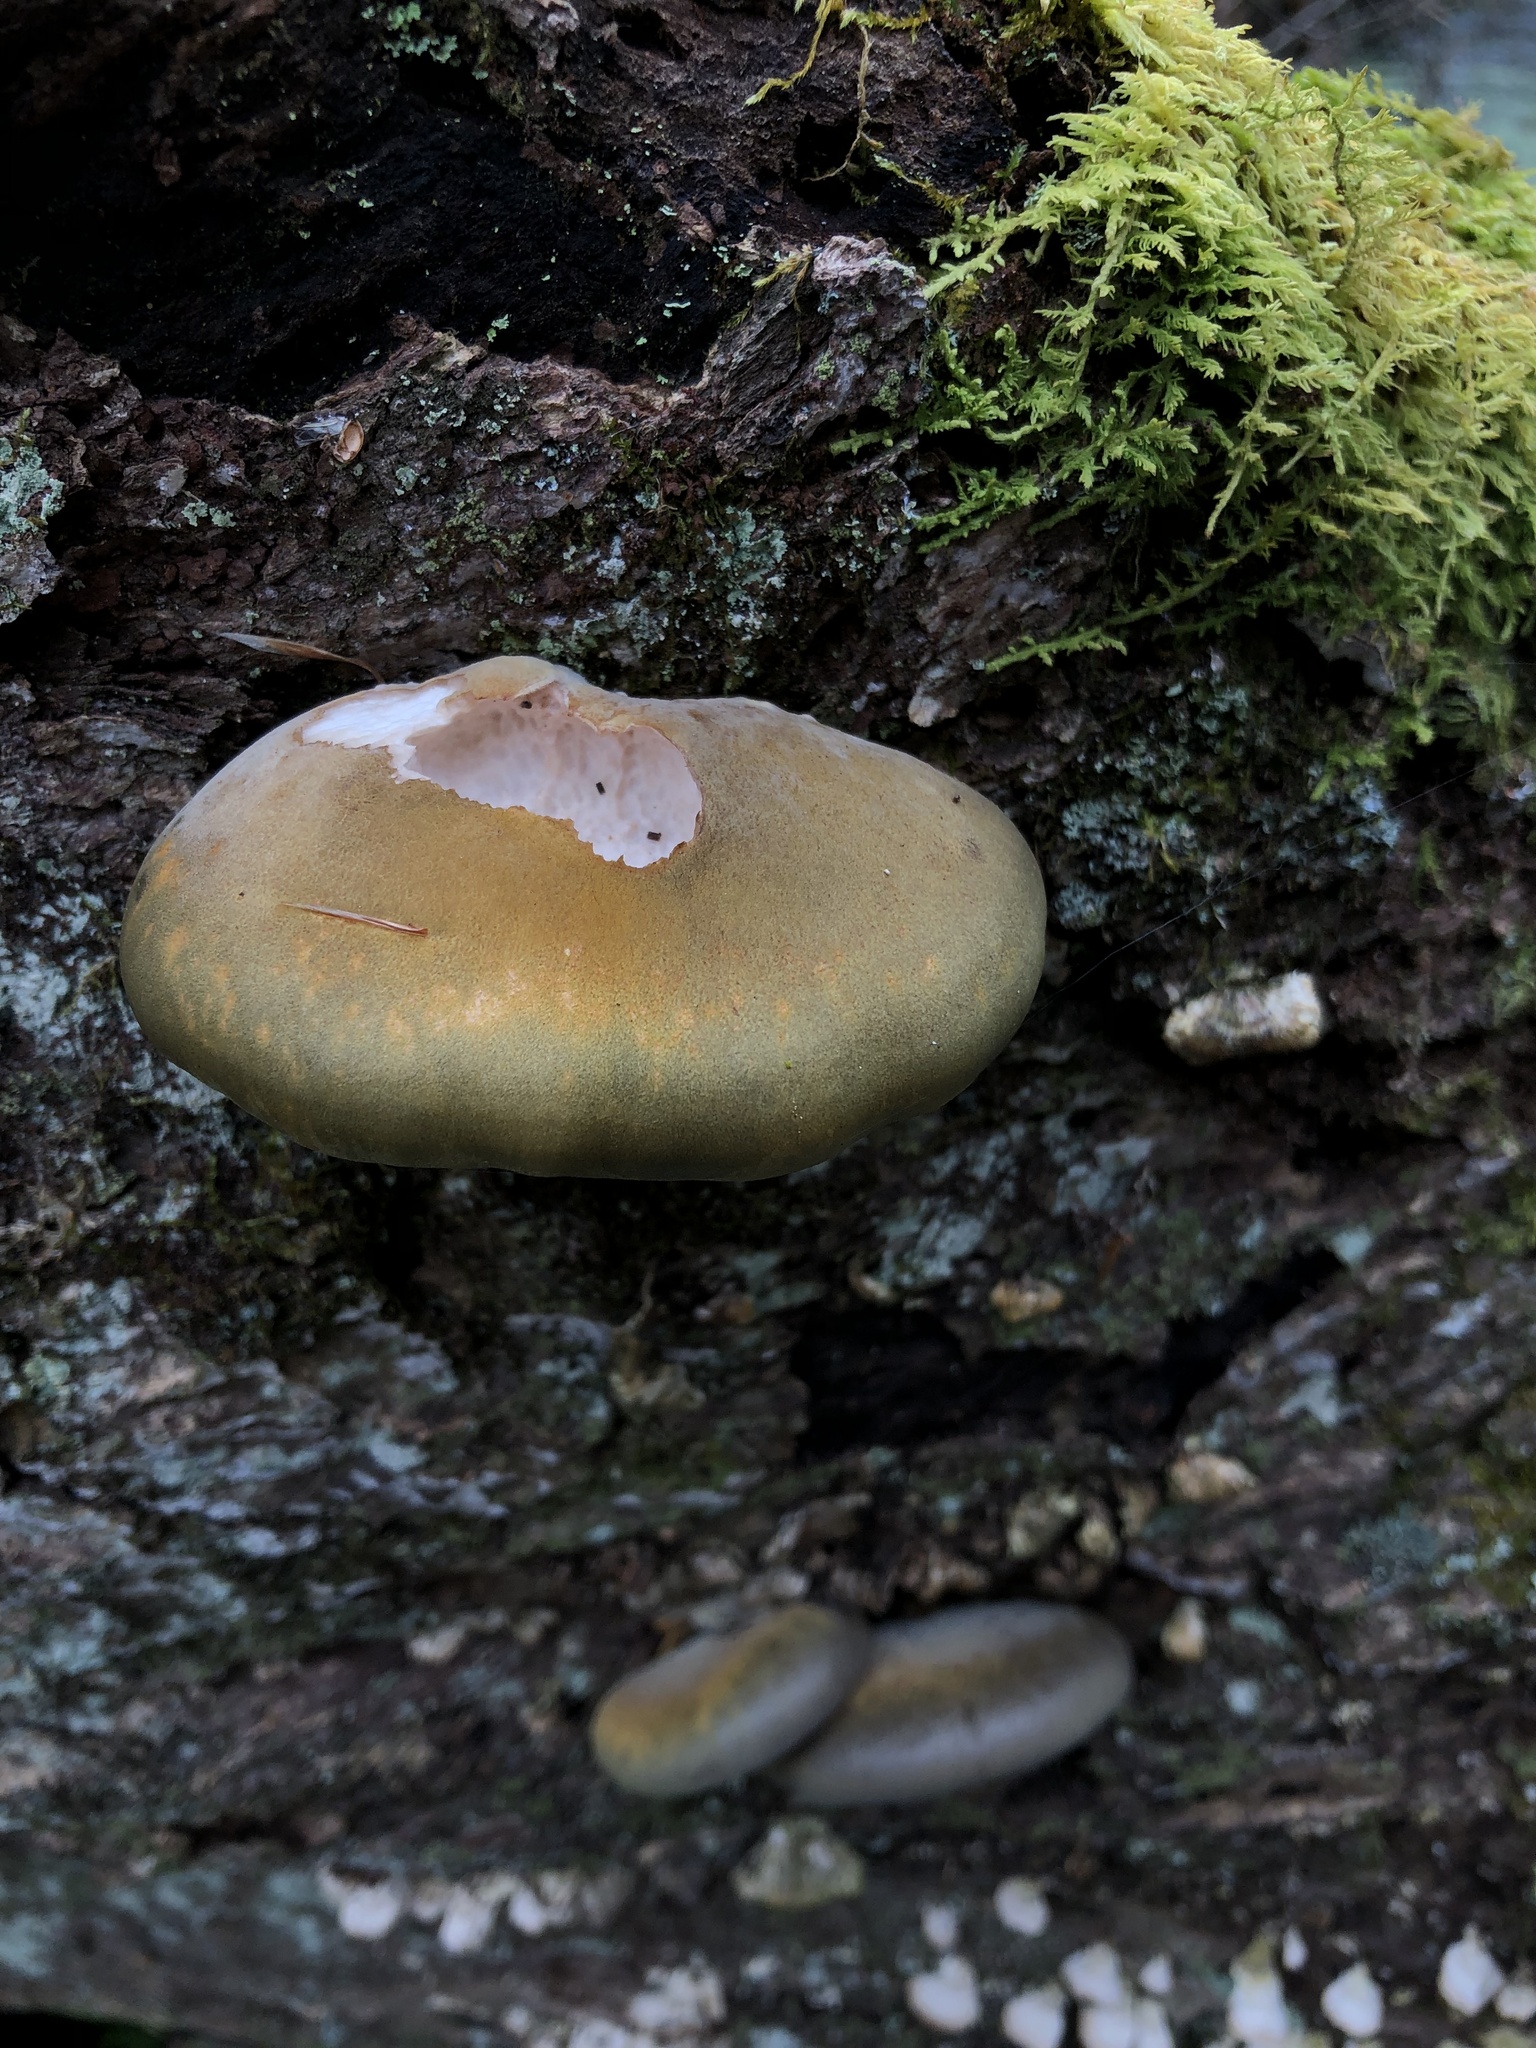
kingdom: Fungi
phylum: Basidiomycota
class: Agaricomycetes
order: Agaricales
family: Sarcomyxaceae
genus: Sarcomyxa
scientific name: Sarcomyxa serotina
